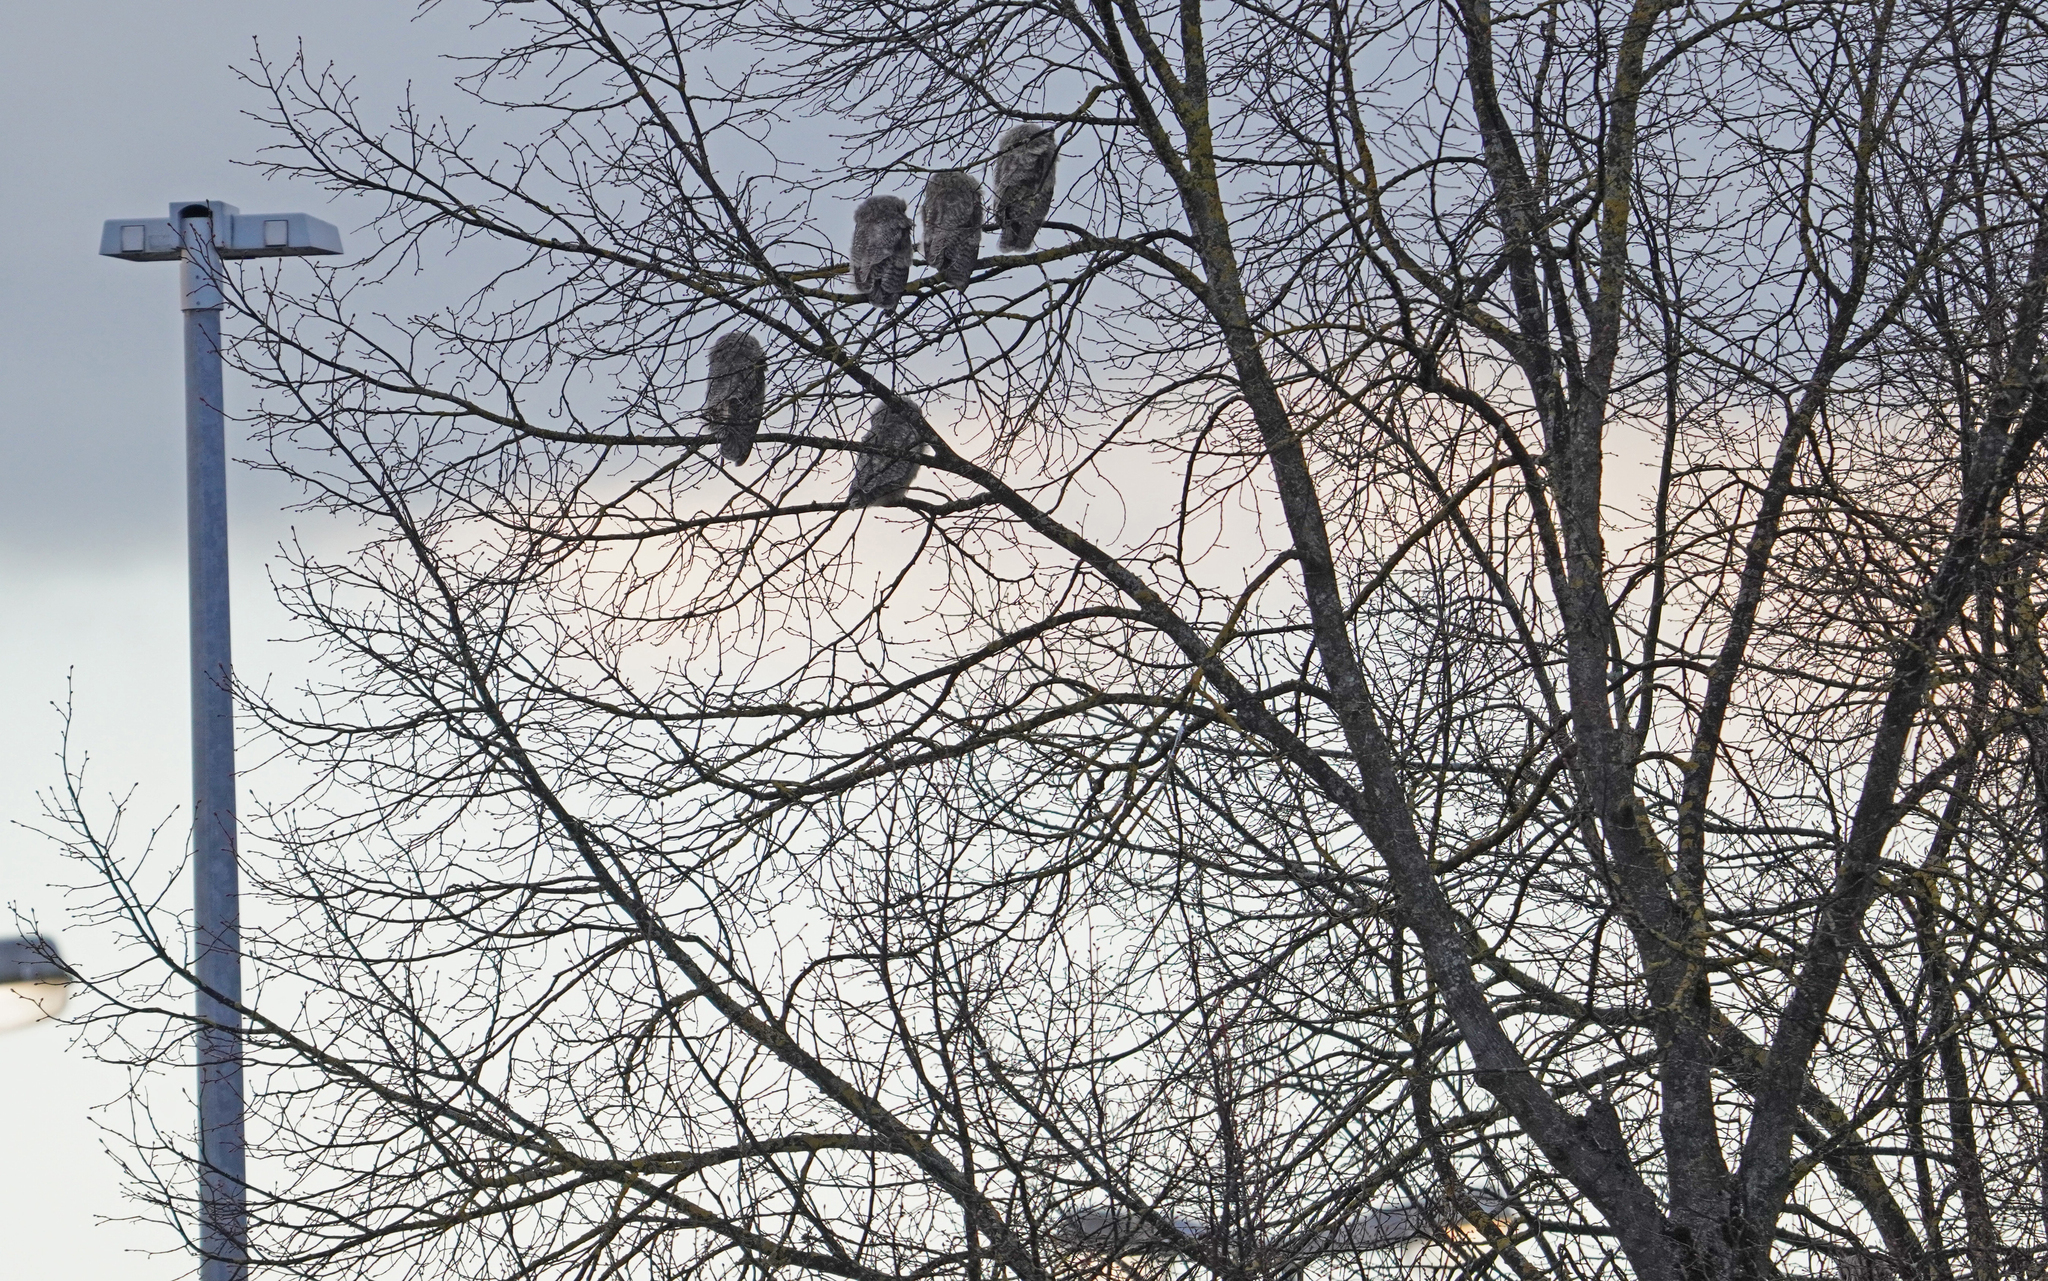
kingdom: Animalia
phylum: Chordata
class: Aves
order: Strigiformes
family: Strigidae
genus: Asio
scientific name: Asio otus
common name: Long-eared owl
